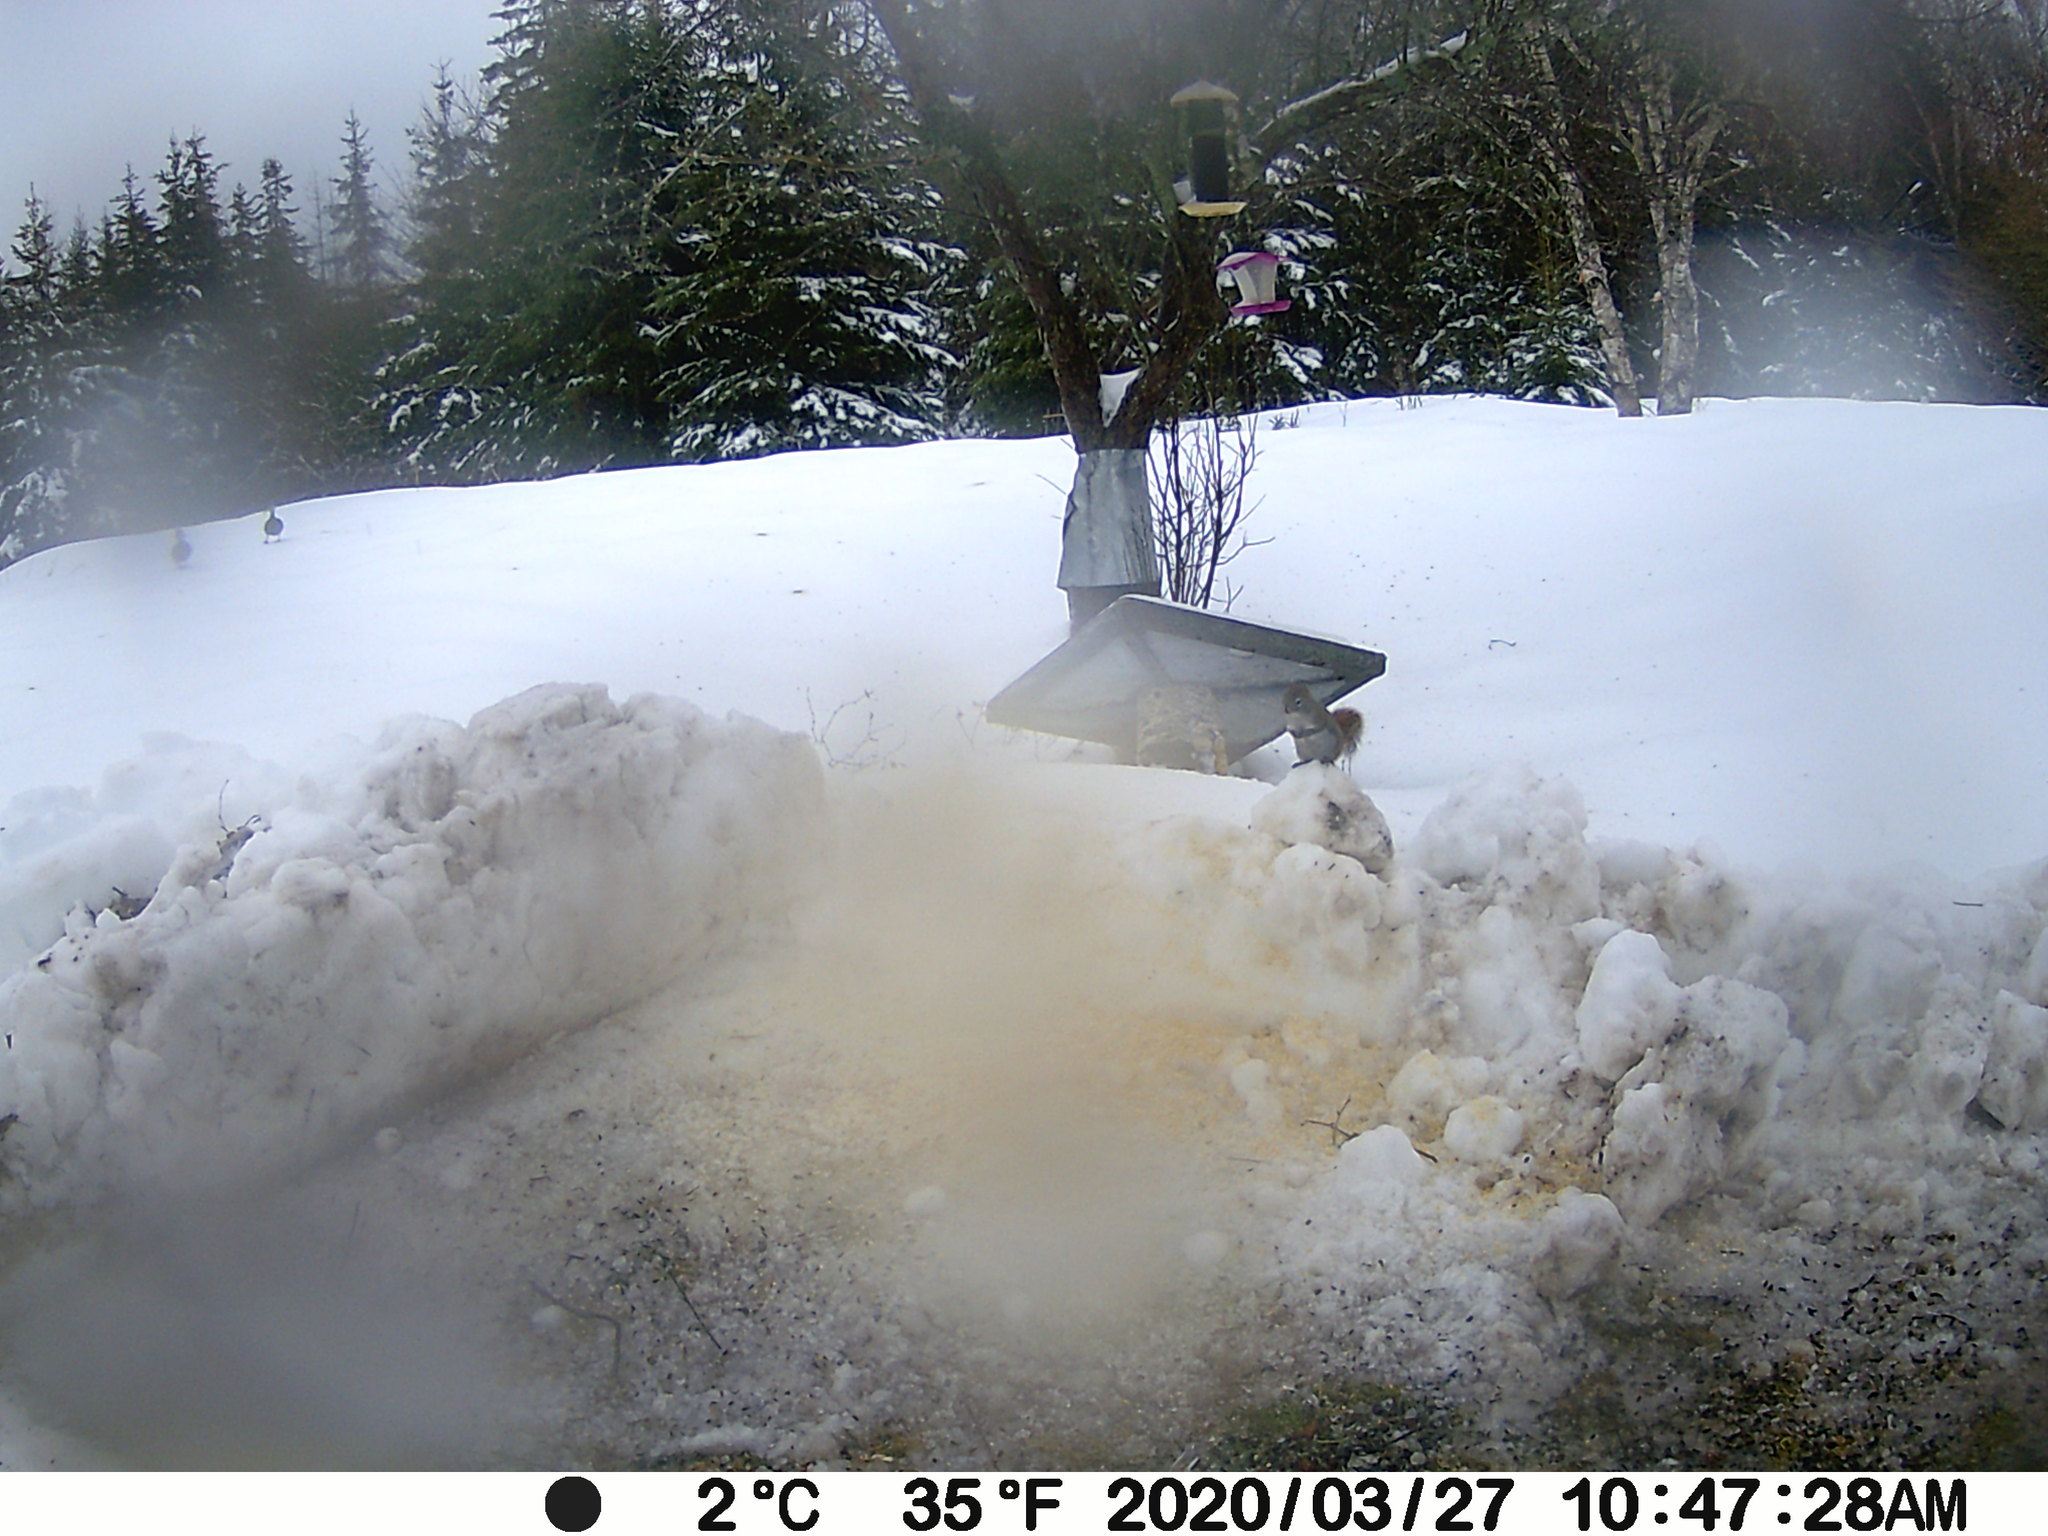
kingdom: Animalia
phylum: Chordata
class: Mammalia
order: Rodentia
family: Sciuridae
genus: Tamiasciurus
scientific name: Tamiasciurus hudsonicus
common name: Red squirrel
